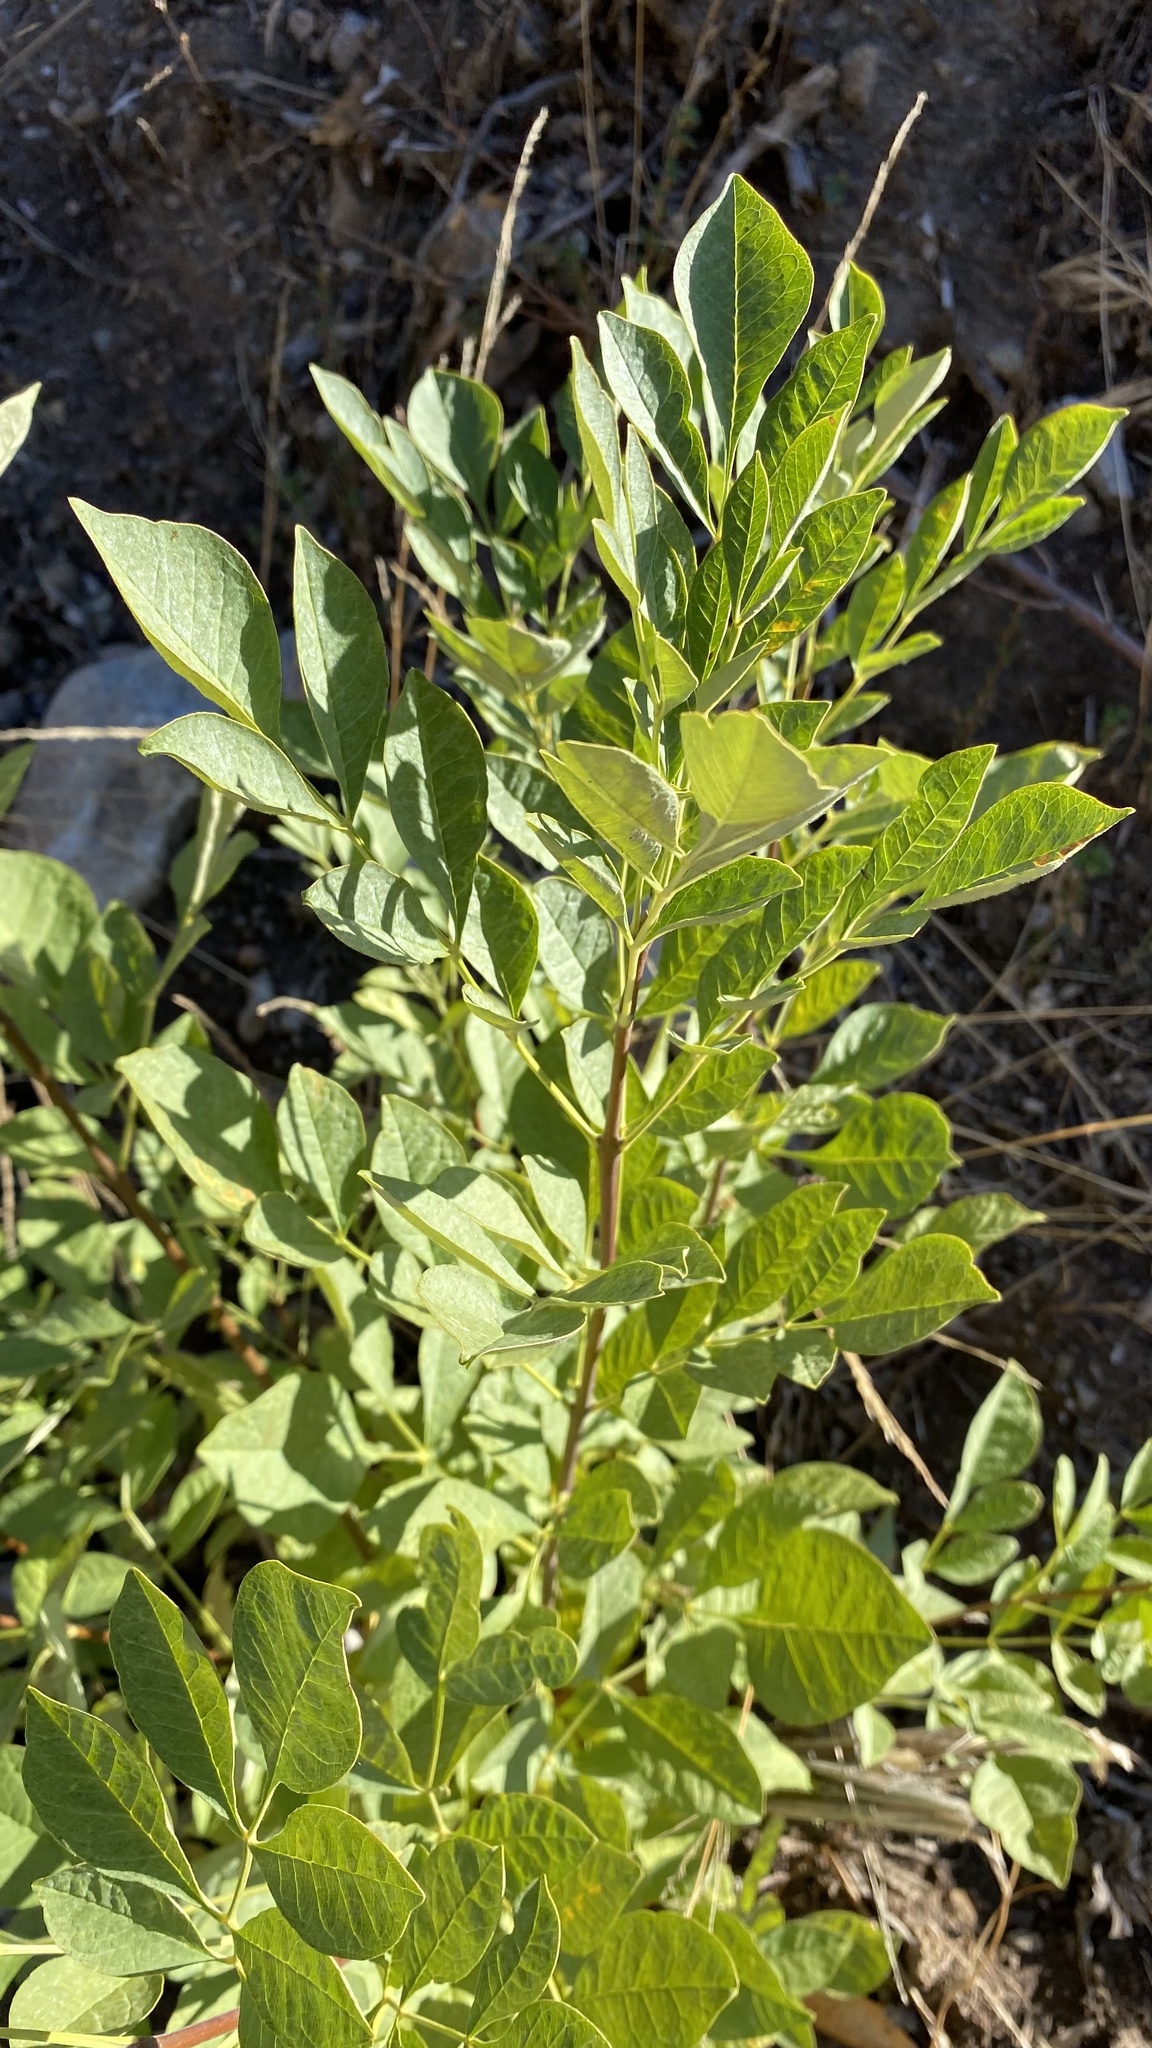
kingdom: Plantae
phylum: Tracheophyta
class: Magnoliopsida
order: Lamiales
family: Oleaceae
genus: Fraxinus
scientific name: Fraxinus latifolia
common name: Oregon ash
